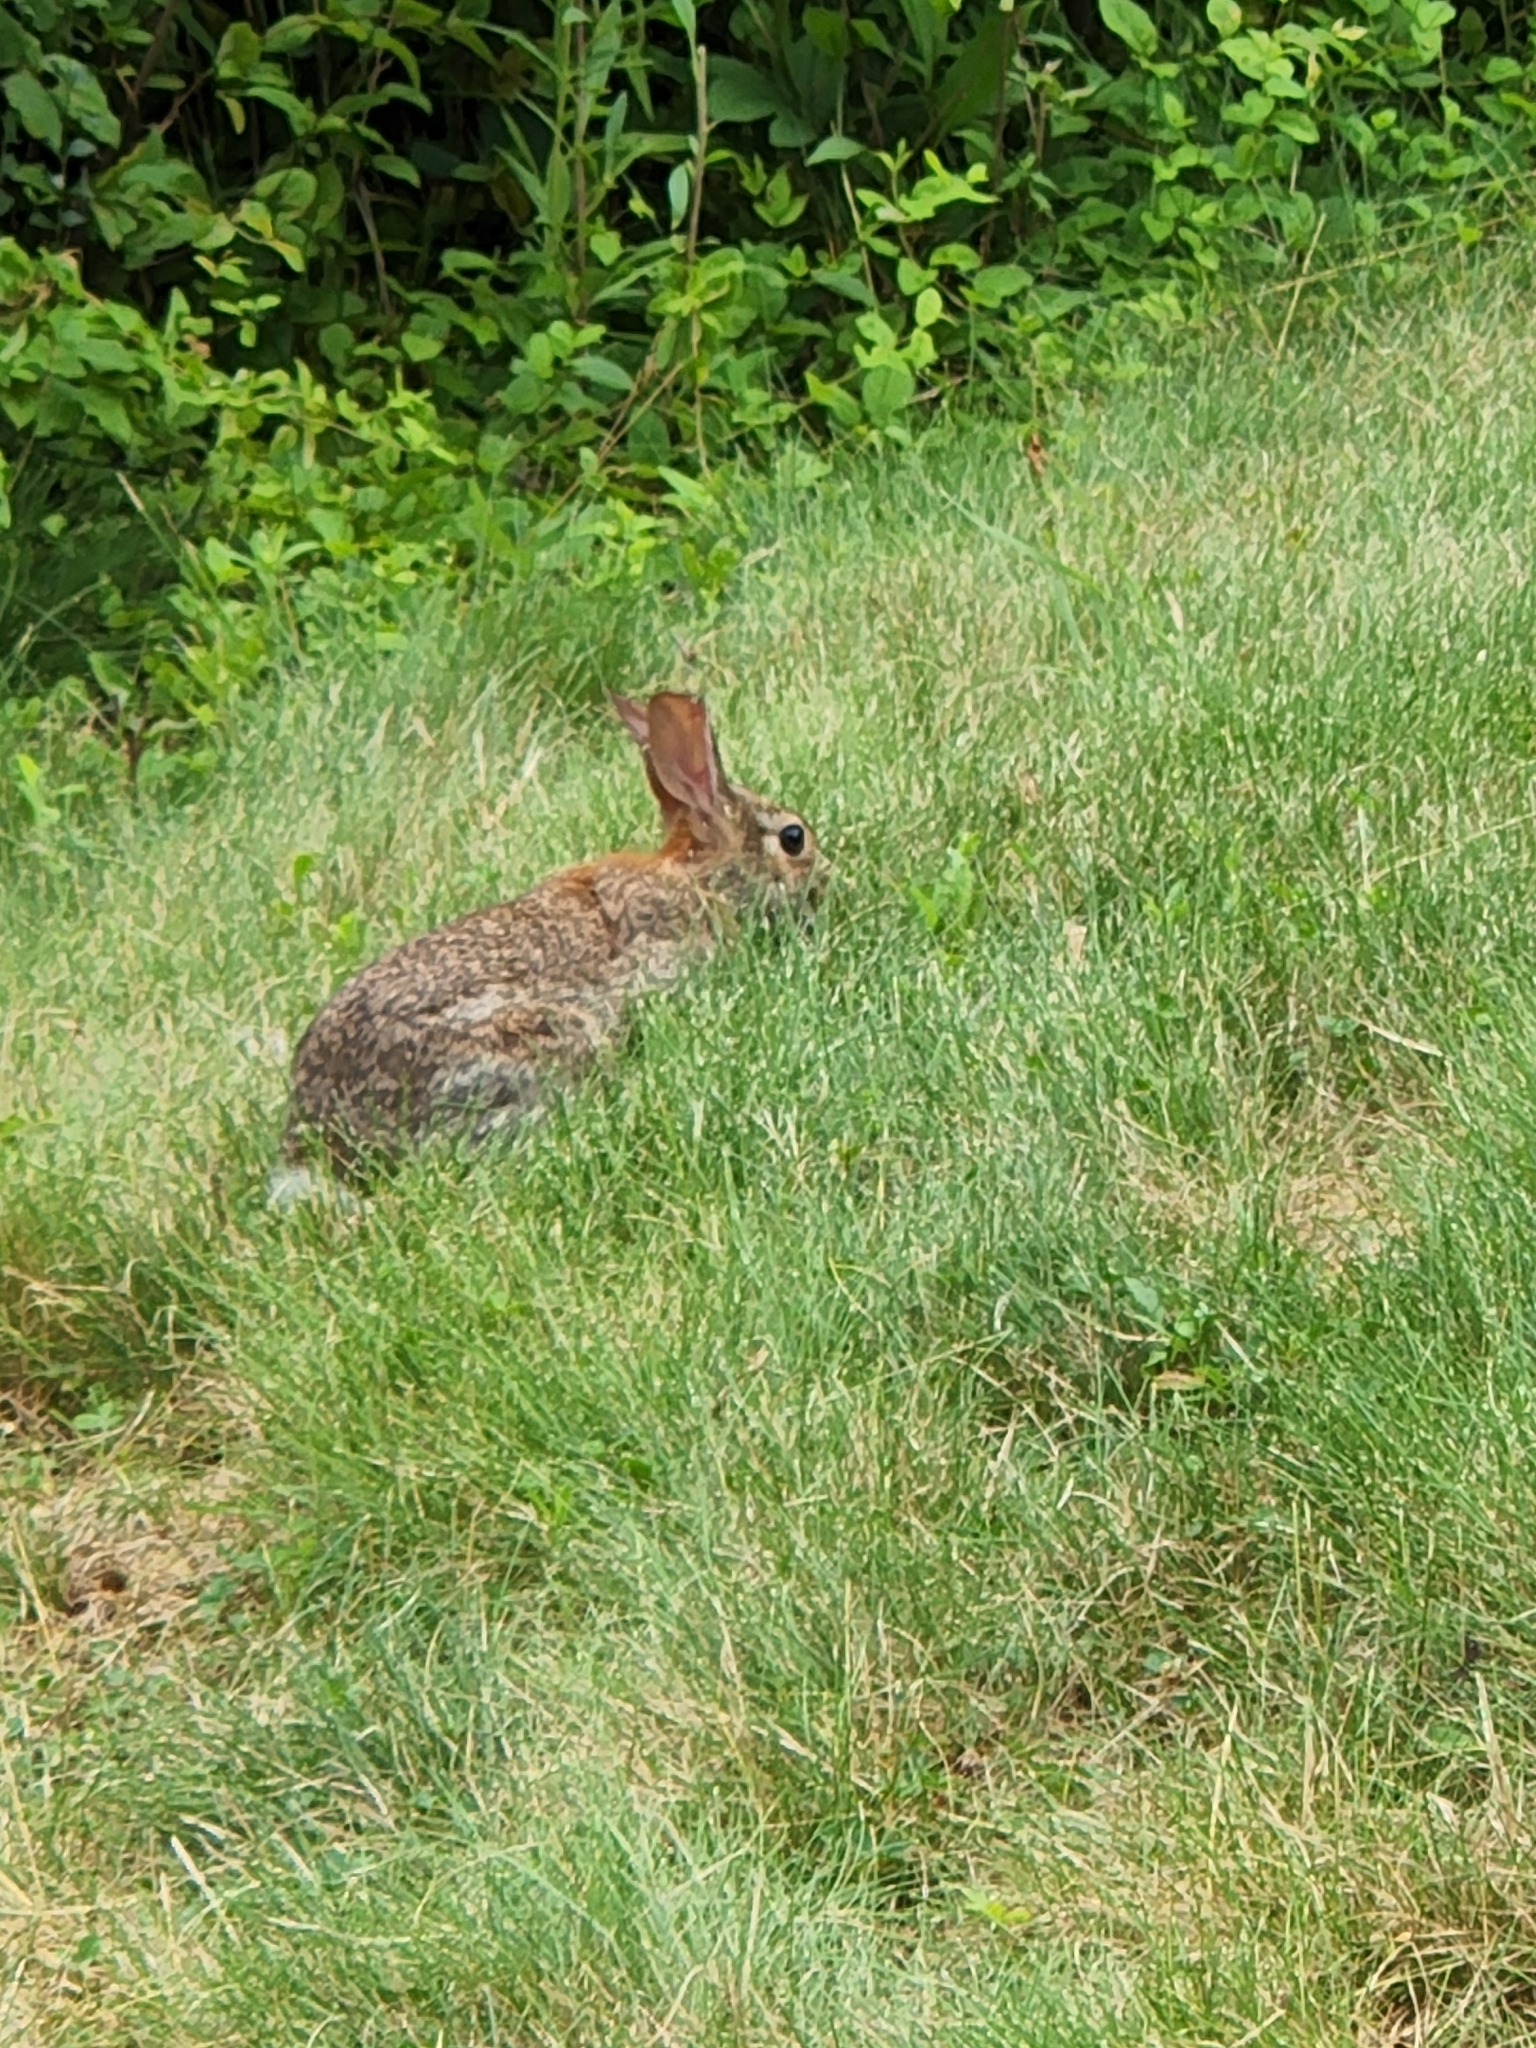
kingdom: Animalia
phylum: Chordata
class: Mammalia
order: Lagomorpha
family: Leporidae
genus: Sylvilagus
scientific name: Sylvilagus floridanus
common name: Eastern cottontail
